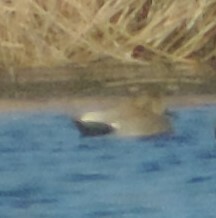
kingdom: Animalia
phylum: Chordata
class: Aves
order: Anseriformes
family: Anatidae
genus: Mareca
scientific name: Mareca strepera
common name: Gadwall
